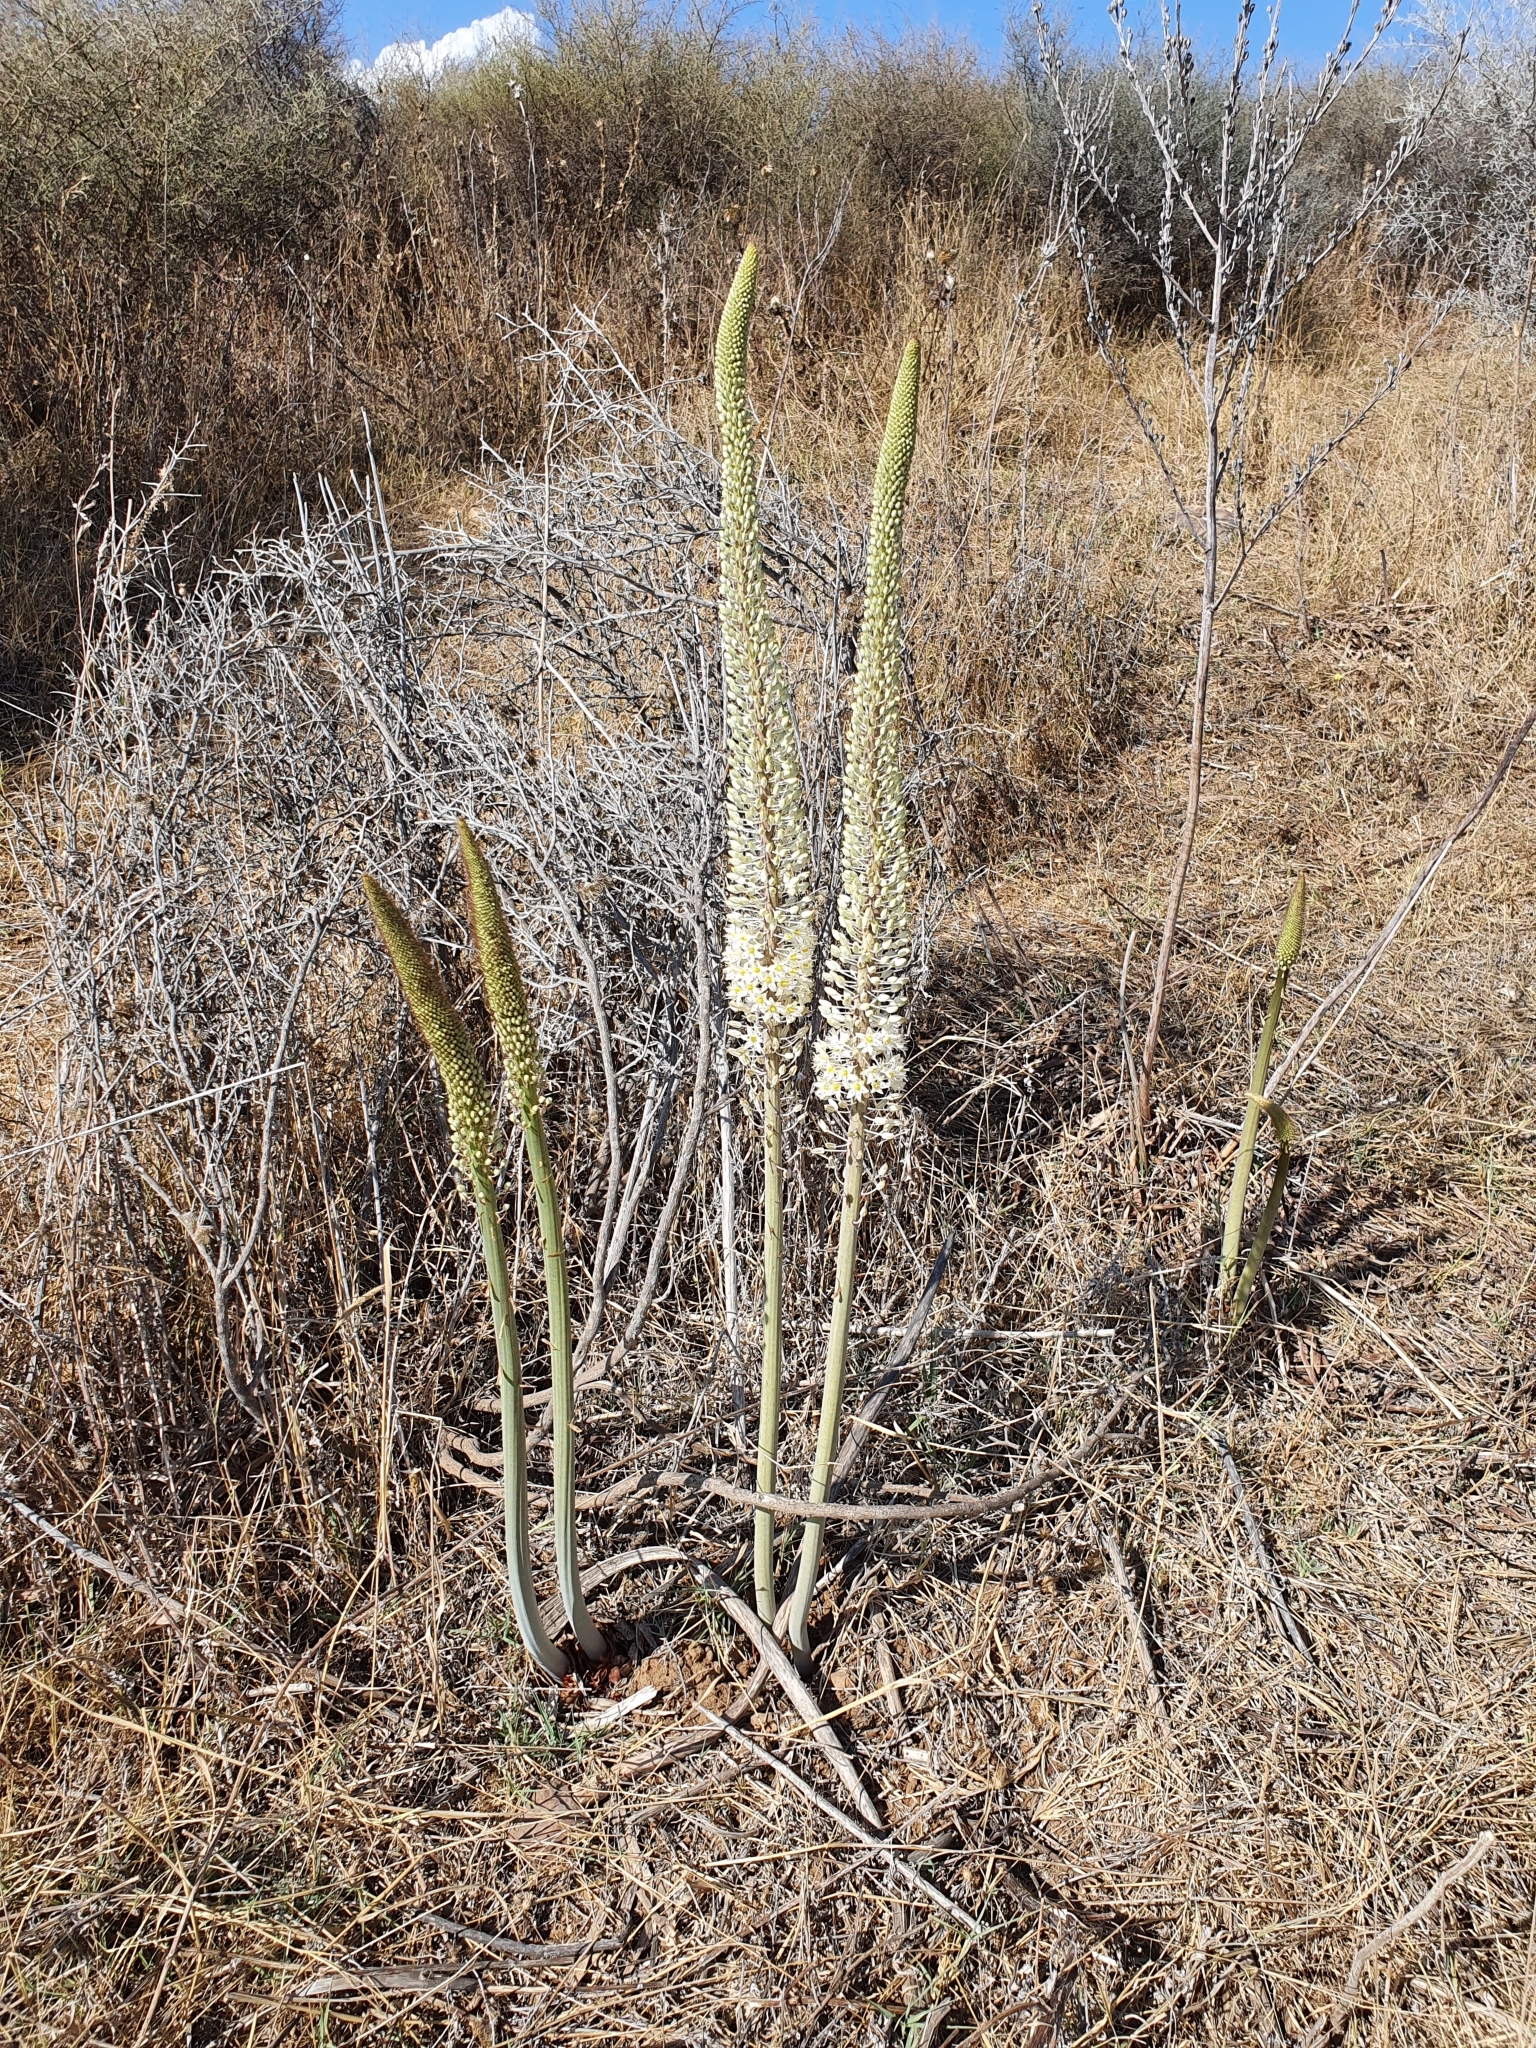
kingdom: Plantae
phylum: Tracheophyta
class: Liliopsida
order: Asparagales
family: Asparagaceae
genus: Drimia
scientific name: Drimia numidica
